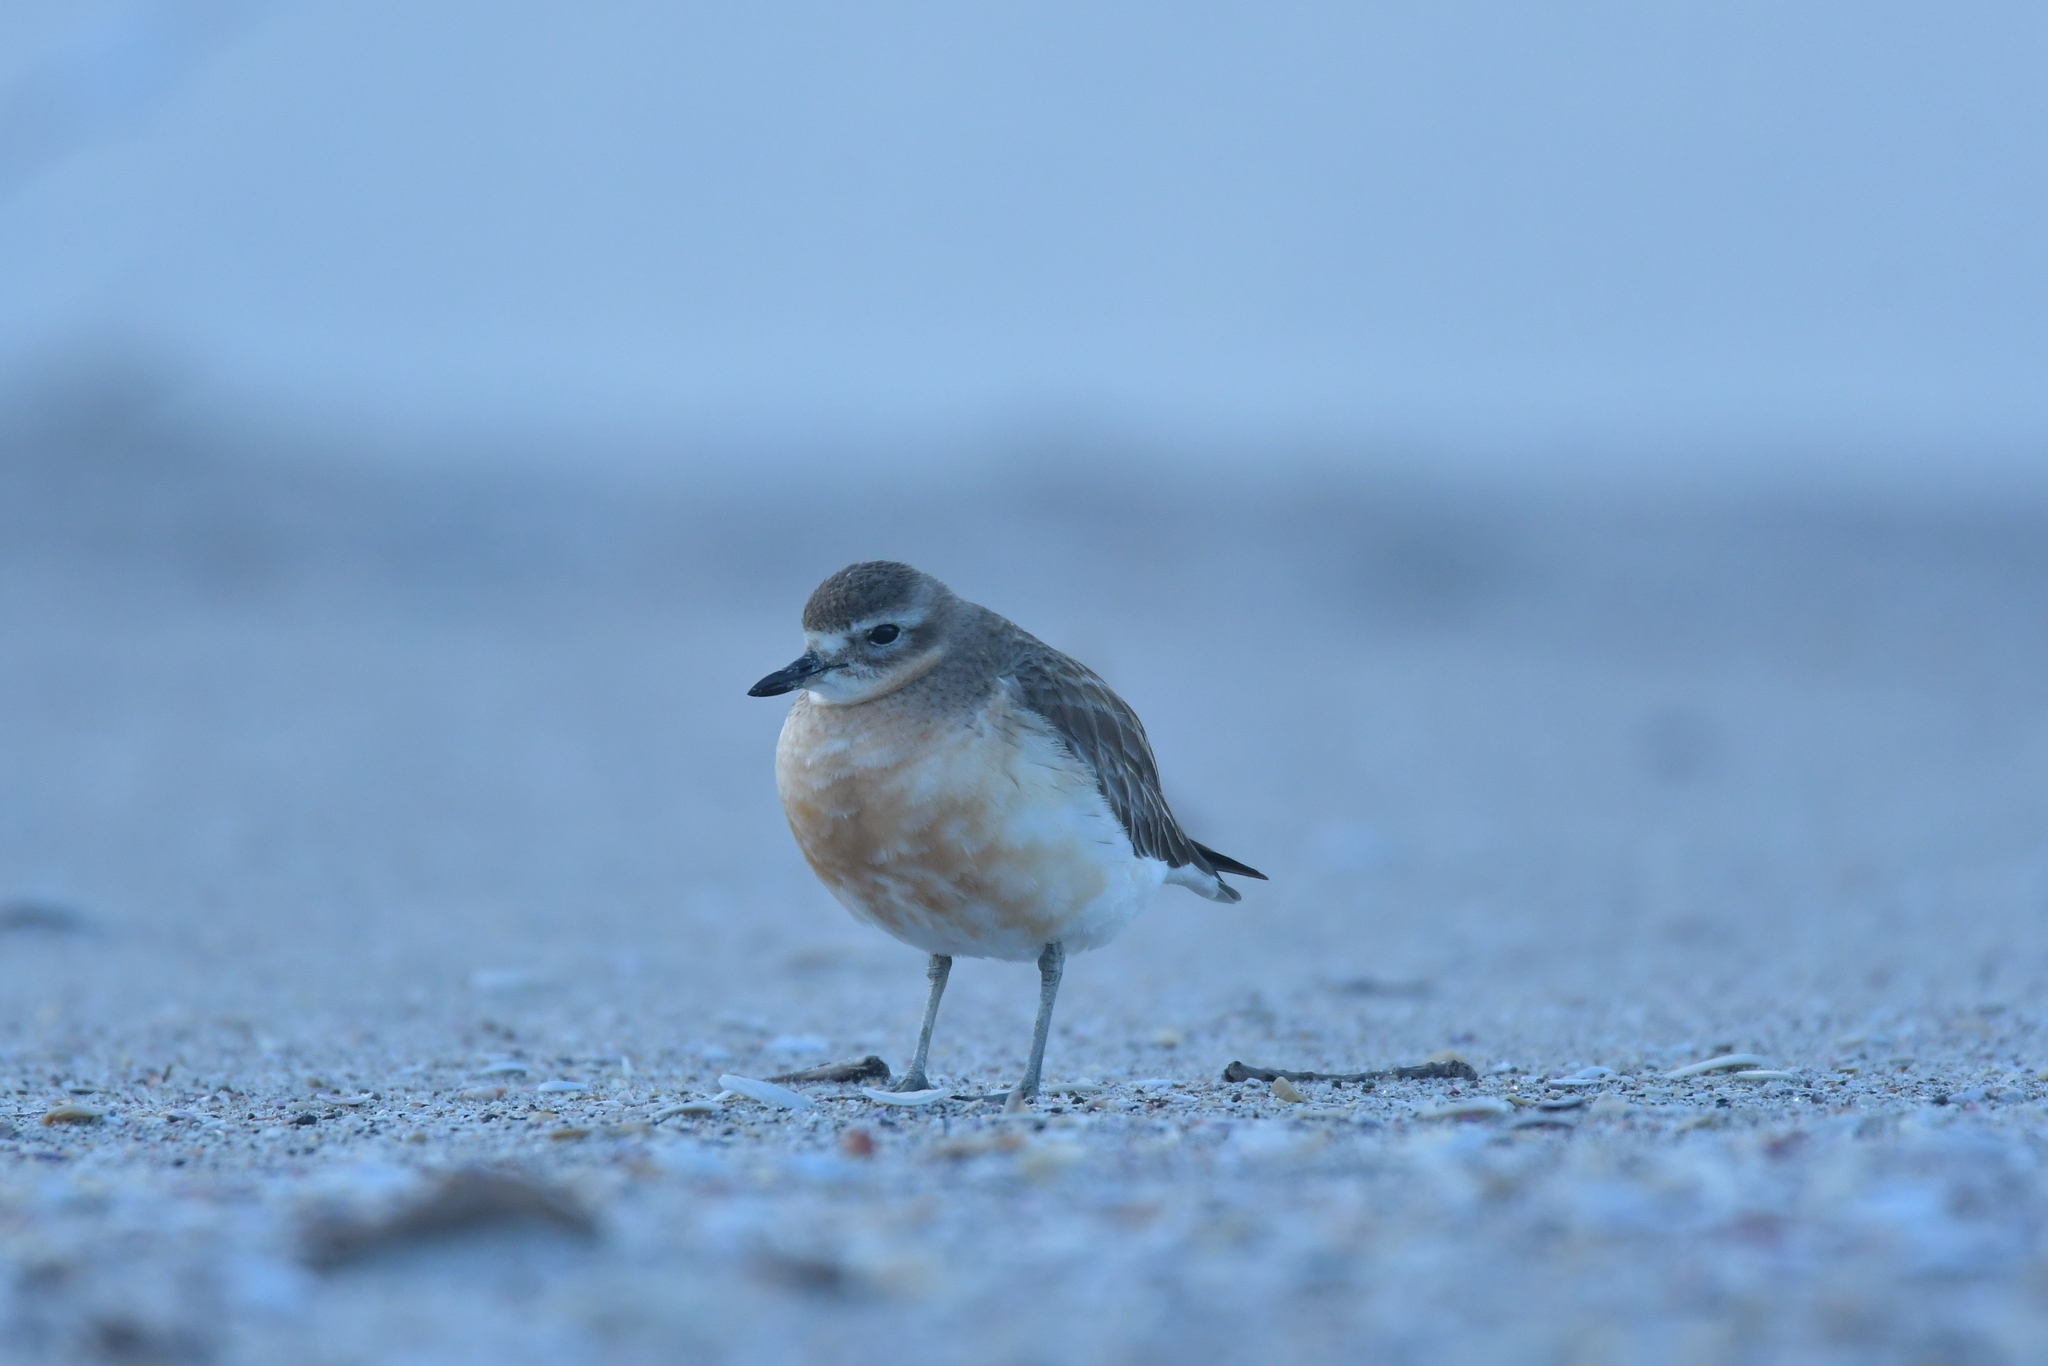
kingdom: Animalia
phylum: Chordata
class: Aves
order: Charadriiformes
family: Charadriidae
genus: Anarhynchus
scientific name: Anarhynchus
